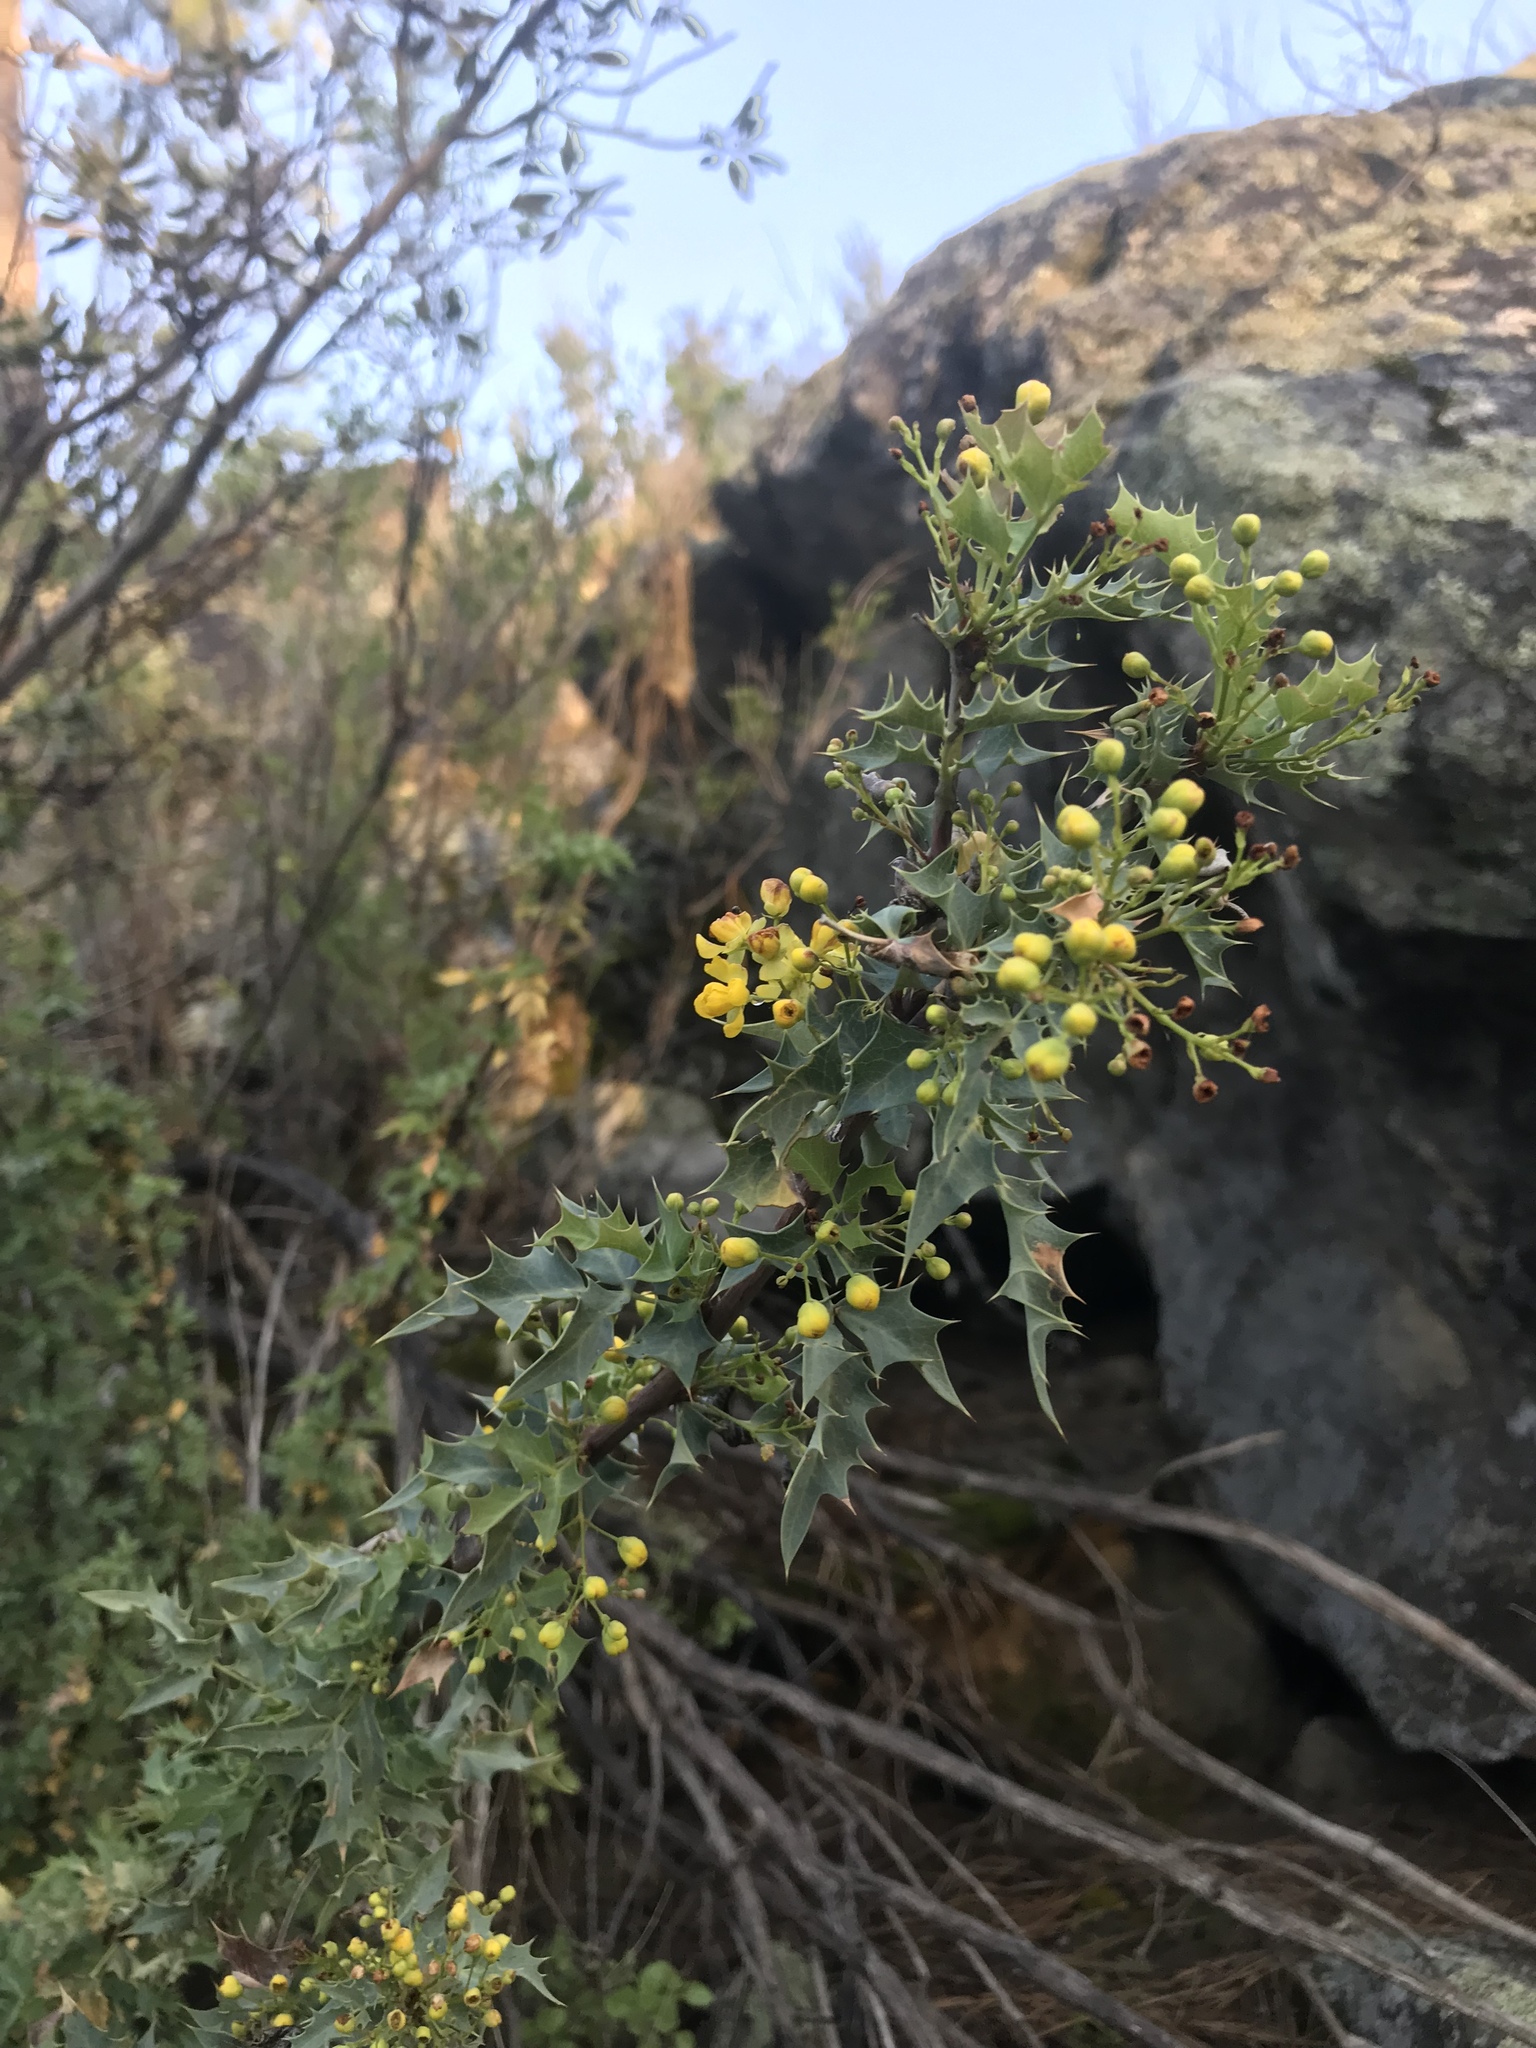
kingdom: Plantae
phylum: Tracheophyta
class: Magnoliopsida
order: Ranunculales
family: Berberidaceae
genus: Alloberberis
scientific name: Alloberberis fremontii
